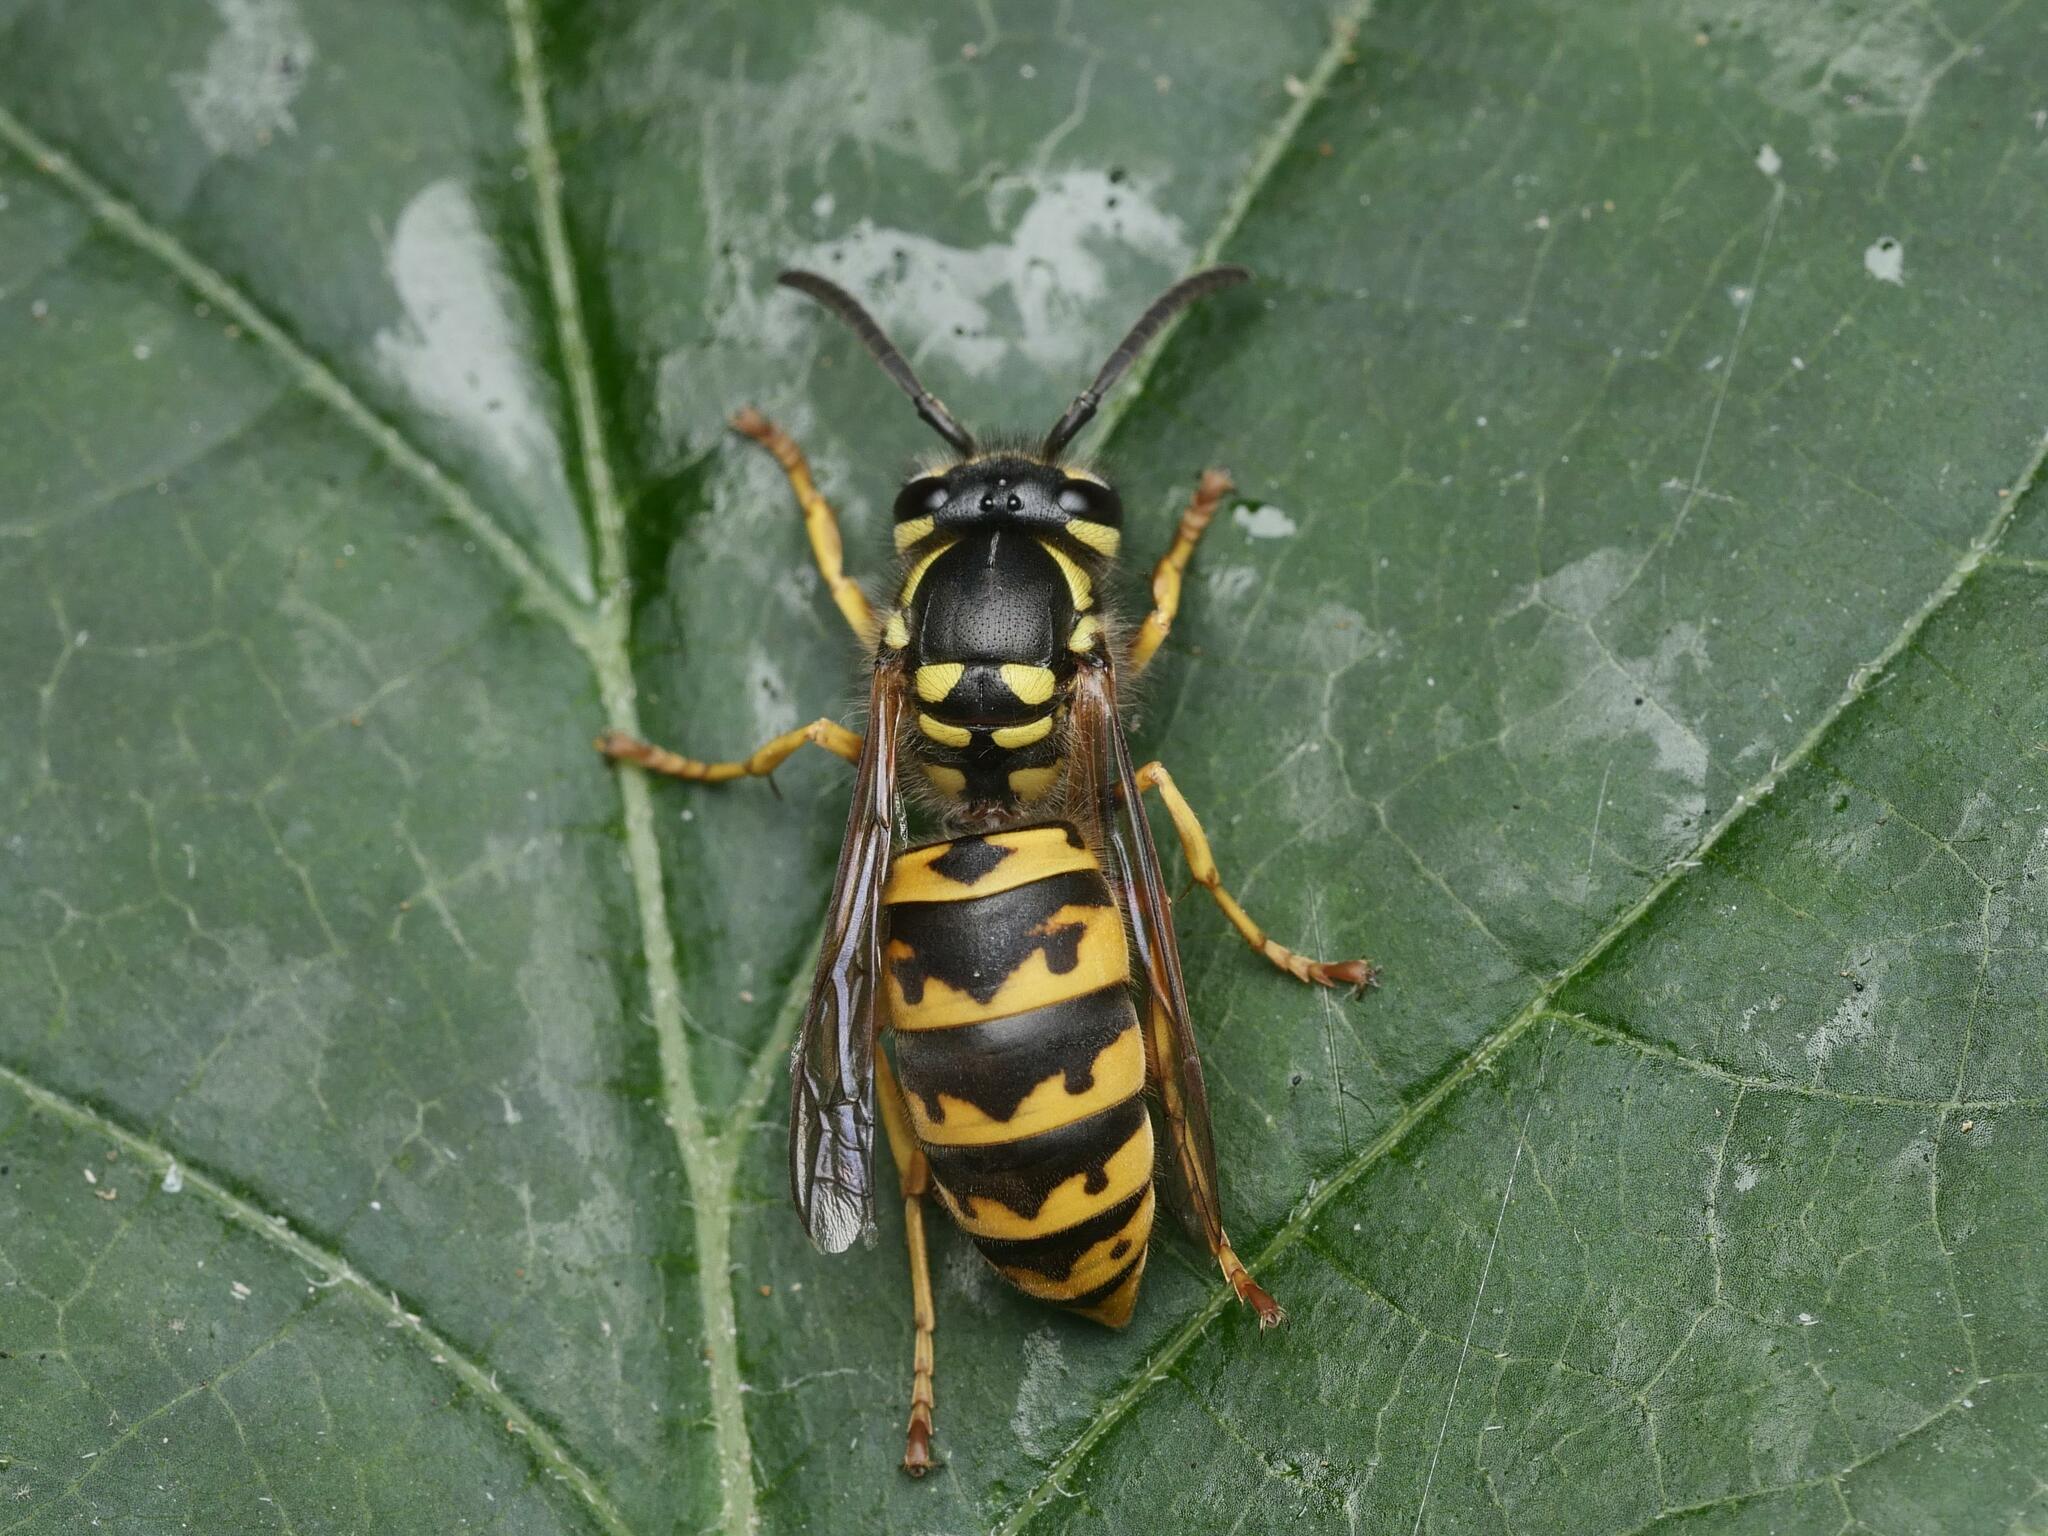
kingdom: Animalia
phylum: Arthropoda
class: Insecta
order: Hymenoptera
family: Vespidae
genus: Vespula
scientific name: Vespula germanica
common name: German wasp
